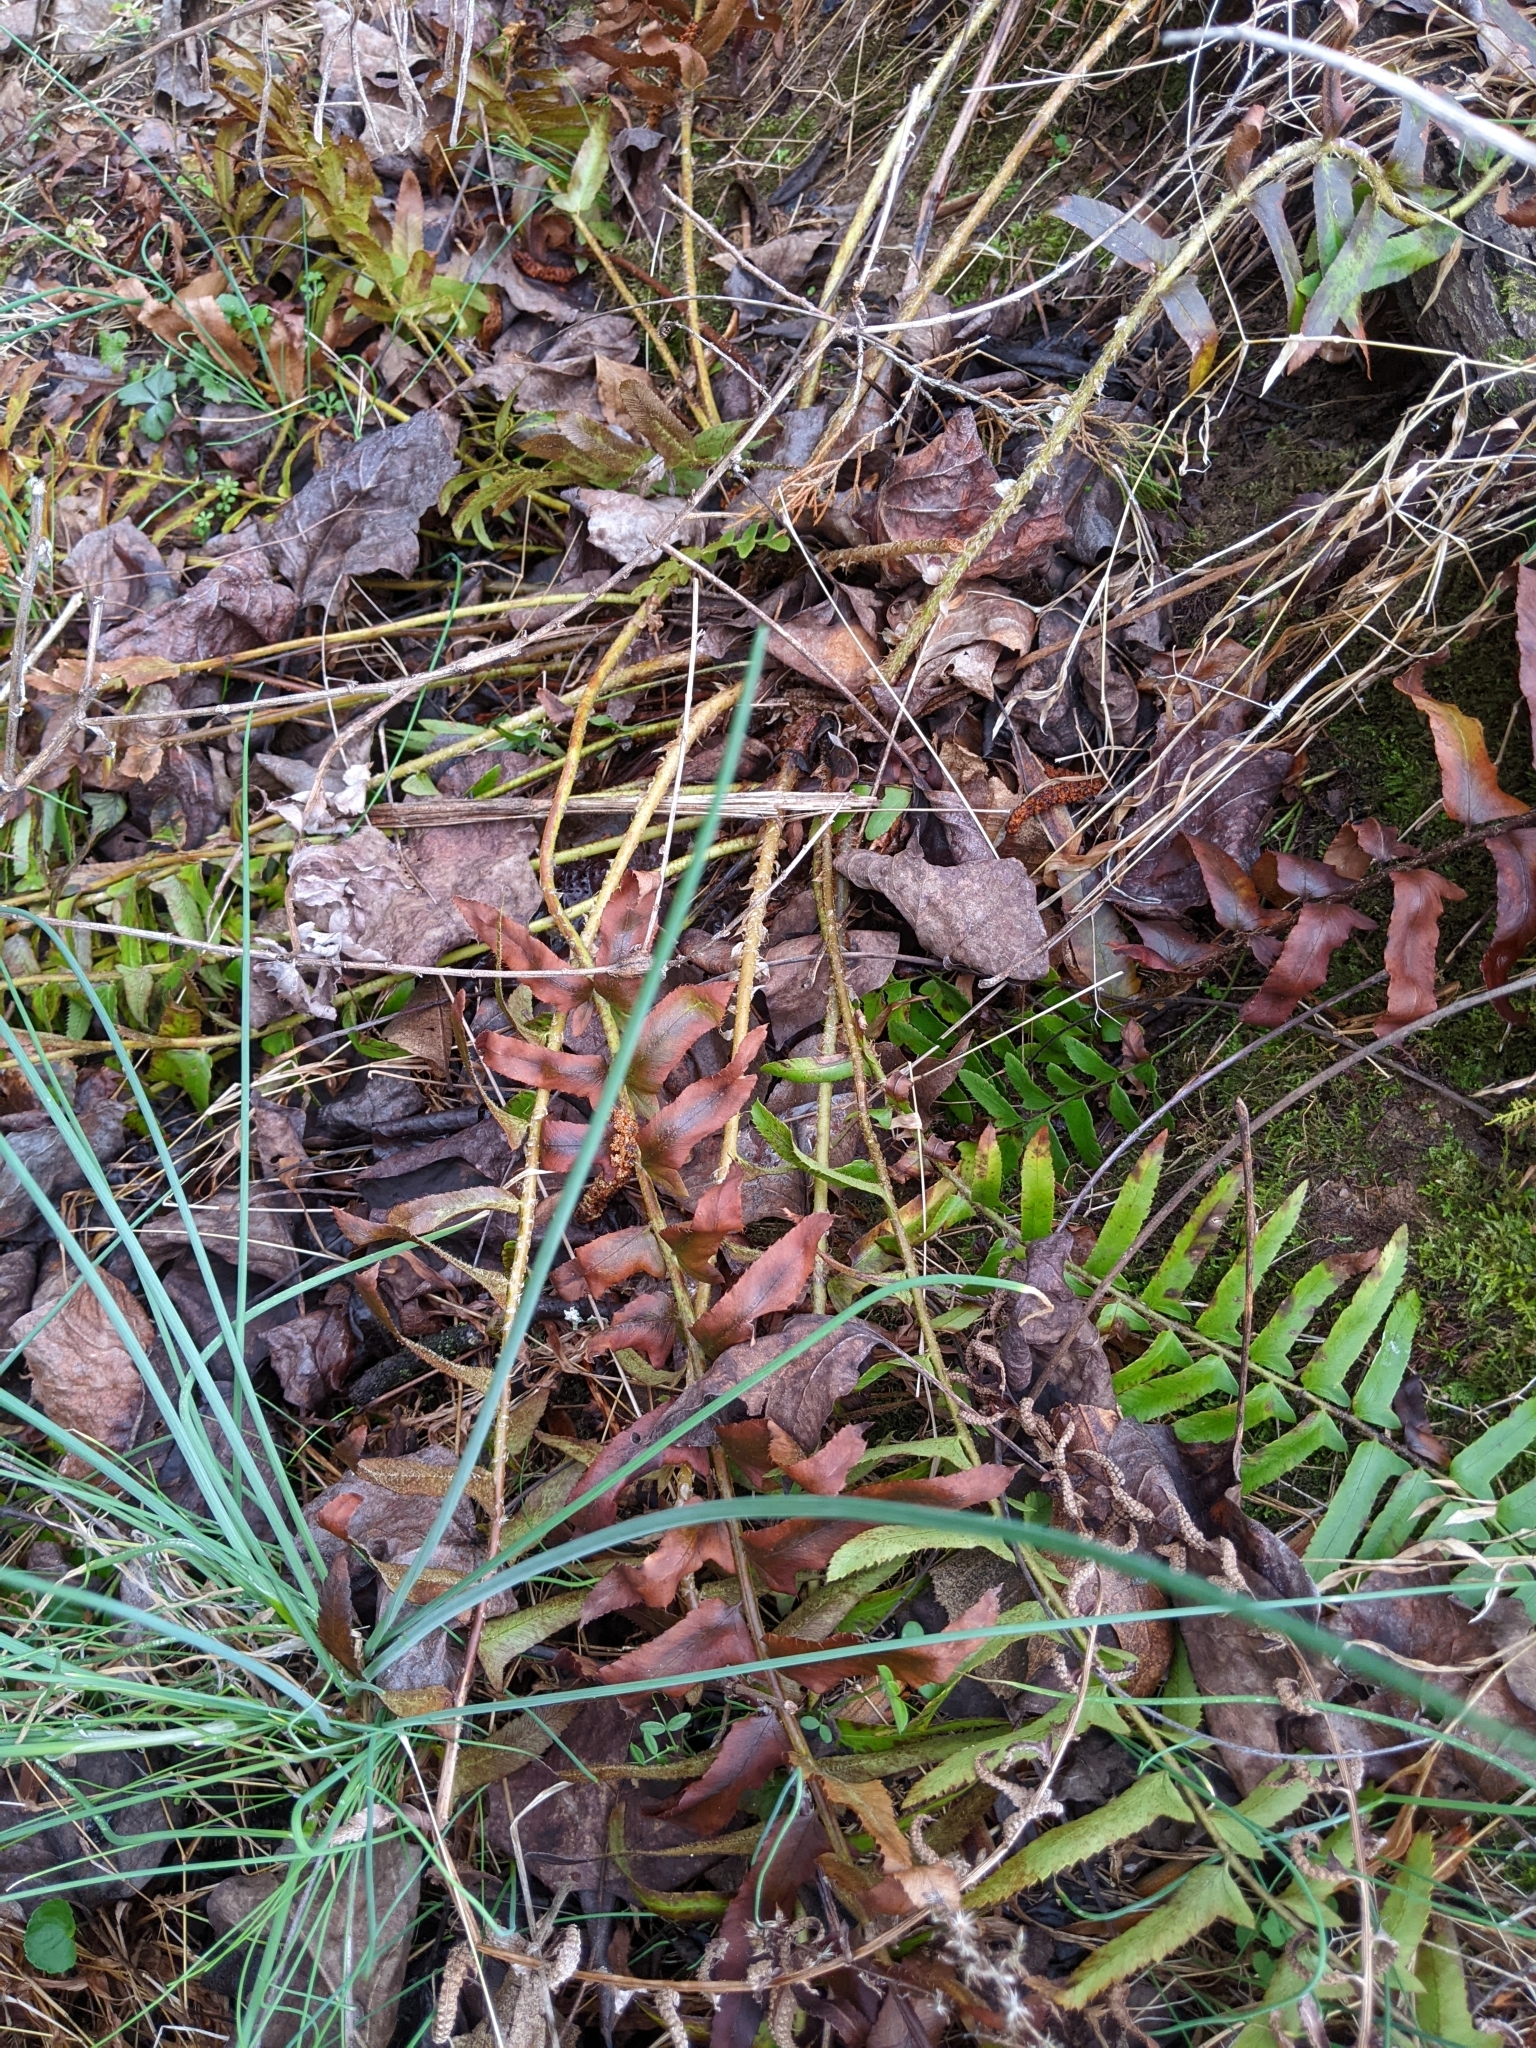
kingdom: Plantae
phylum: Tracheophyta
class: Polypodiopsida
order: Polypodiales
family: Dryopteridaceae
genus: Polystichum
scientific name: Polystichum acrostichoides
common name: Christmas fern
